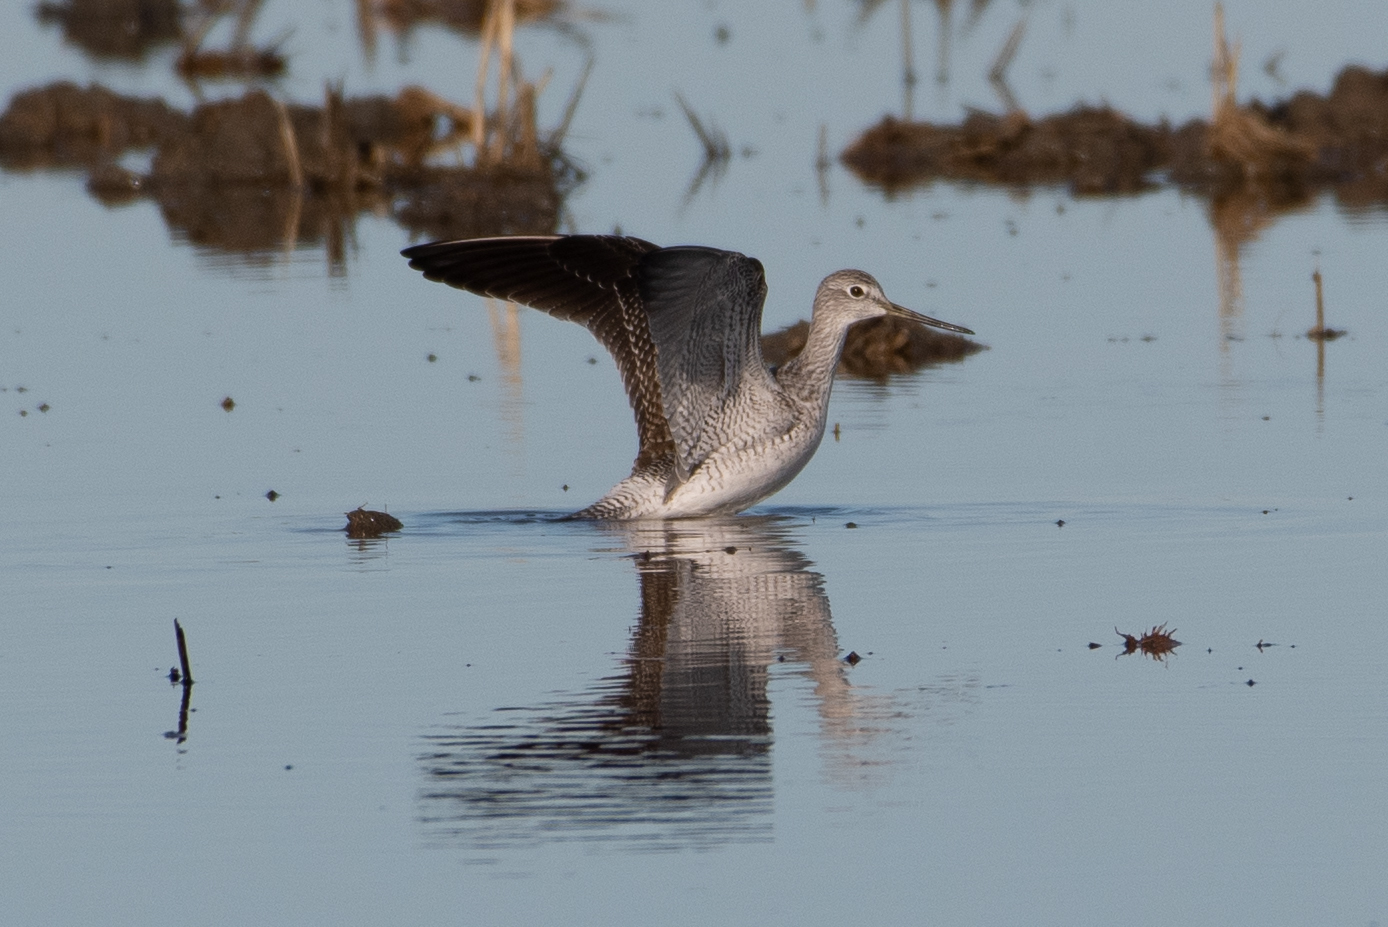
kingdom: Animalia
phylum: Chordata
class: Aves
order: Charadriiformes
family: Scolopacidae
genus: Tringa
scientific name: Tringa melanoleuca
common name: Greater yellowlegs
